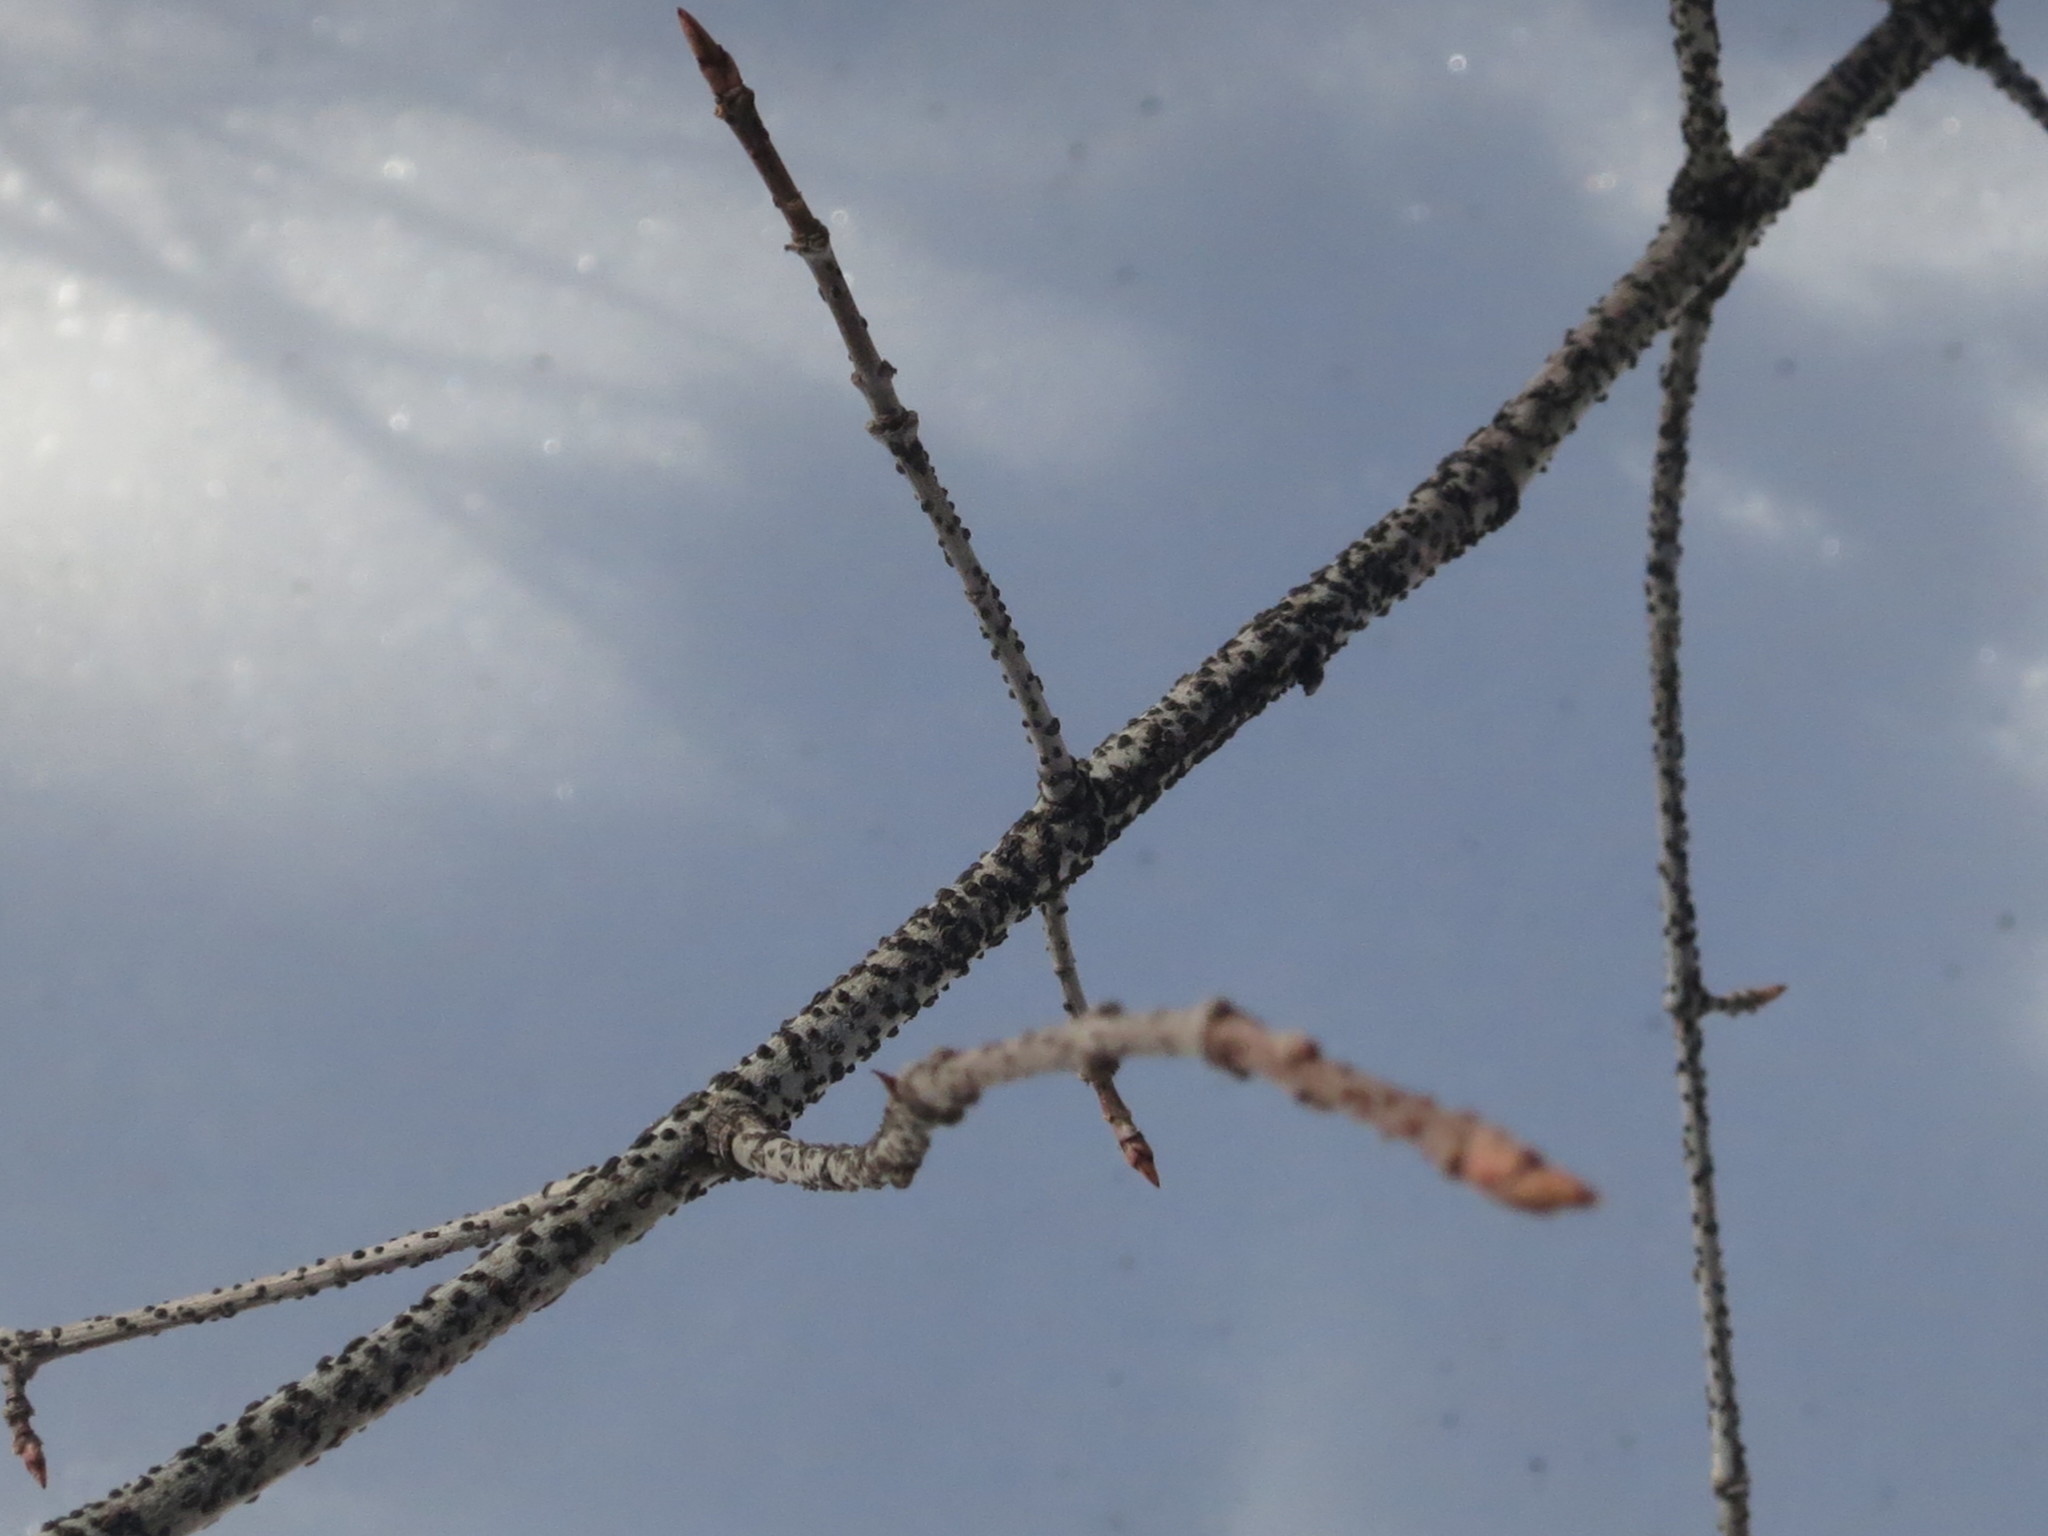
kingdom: Plantae
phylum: Tracheophyta
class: Magnoliopsida
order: Celastrales
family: Celastraceae
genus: Euonymus
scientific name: Euonymus verrucosus
